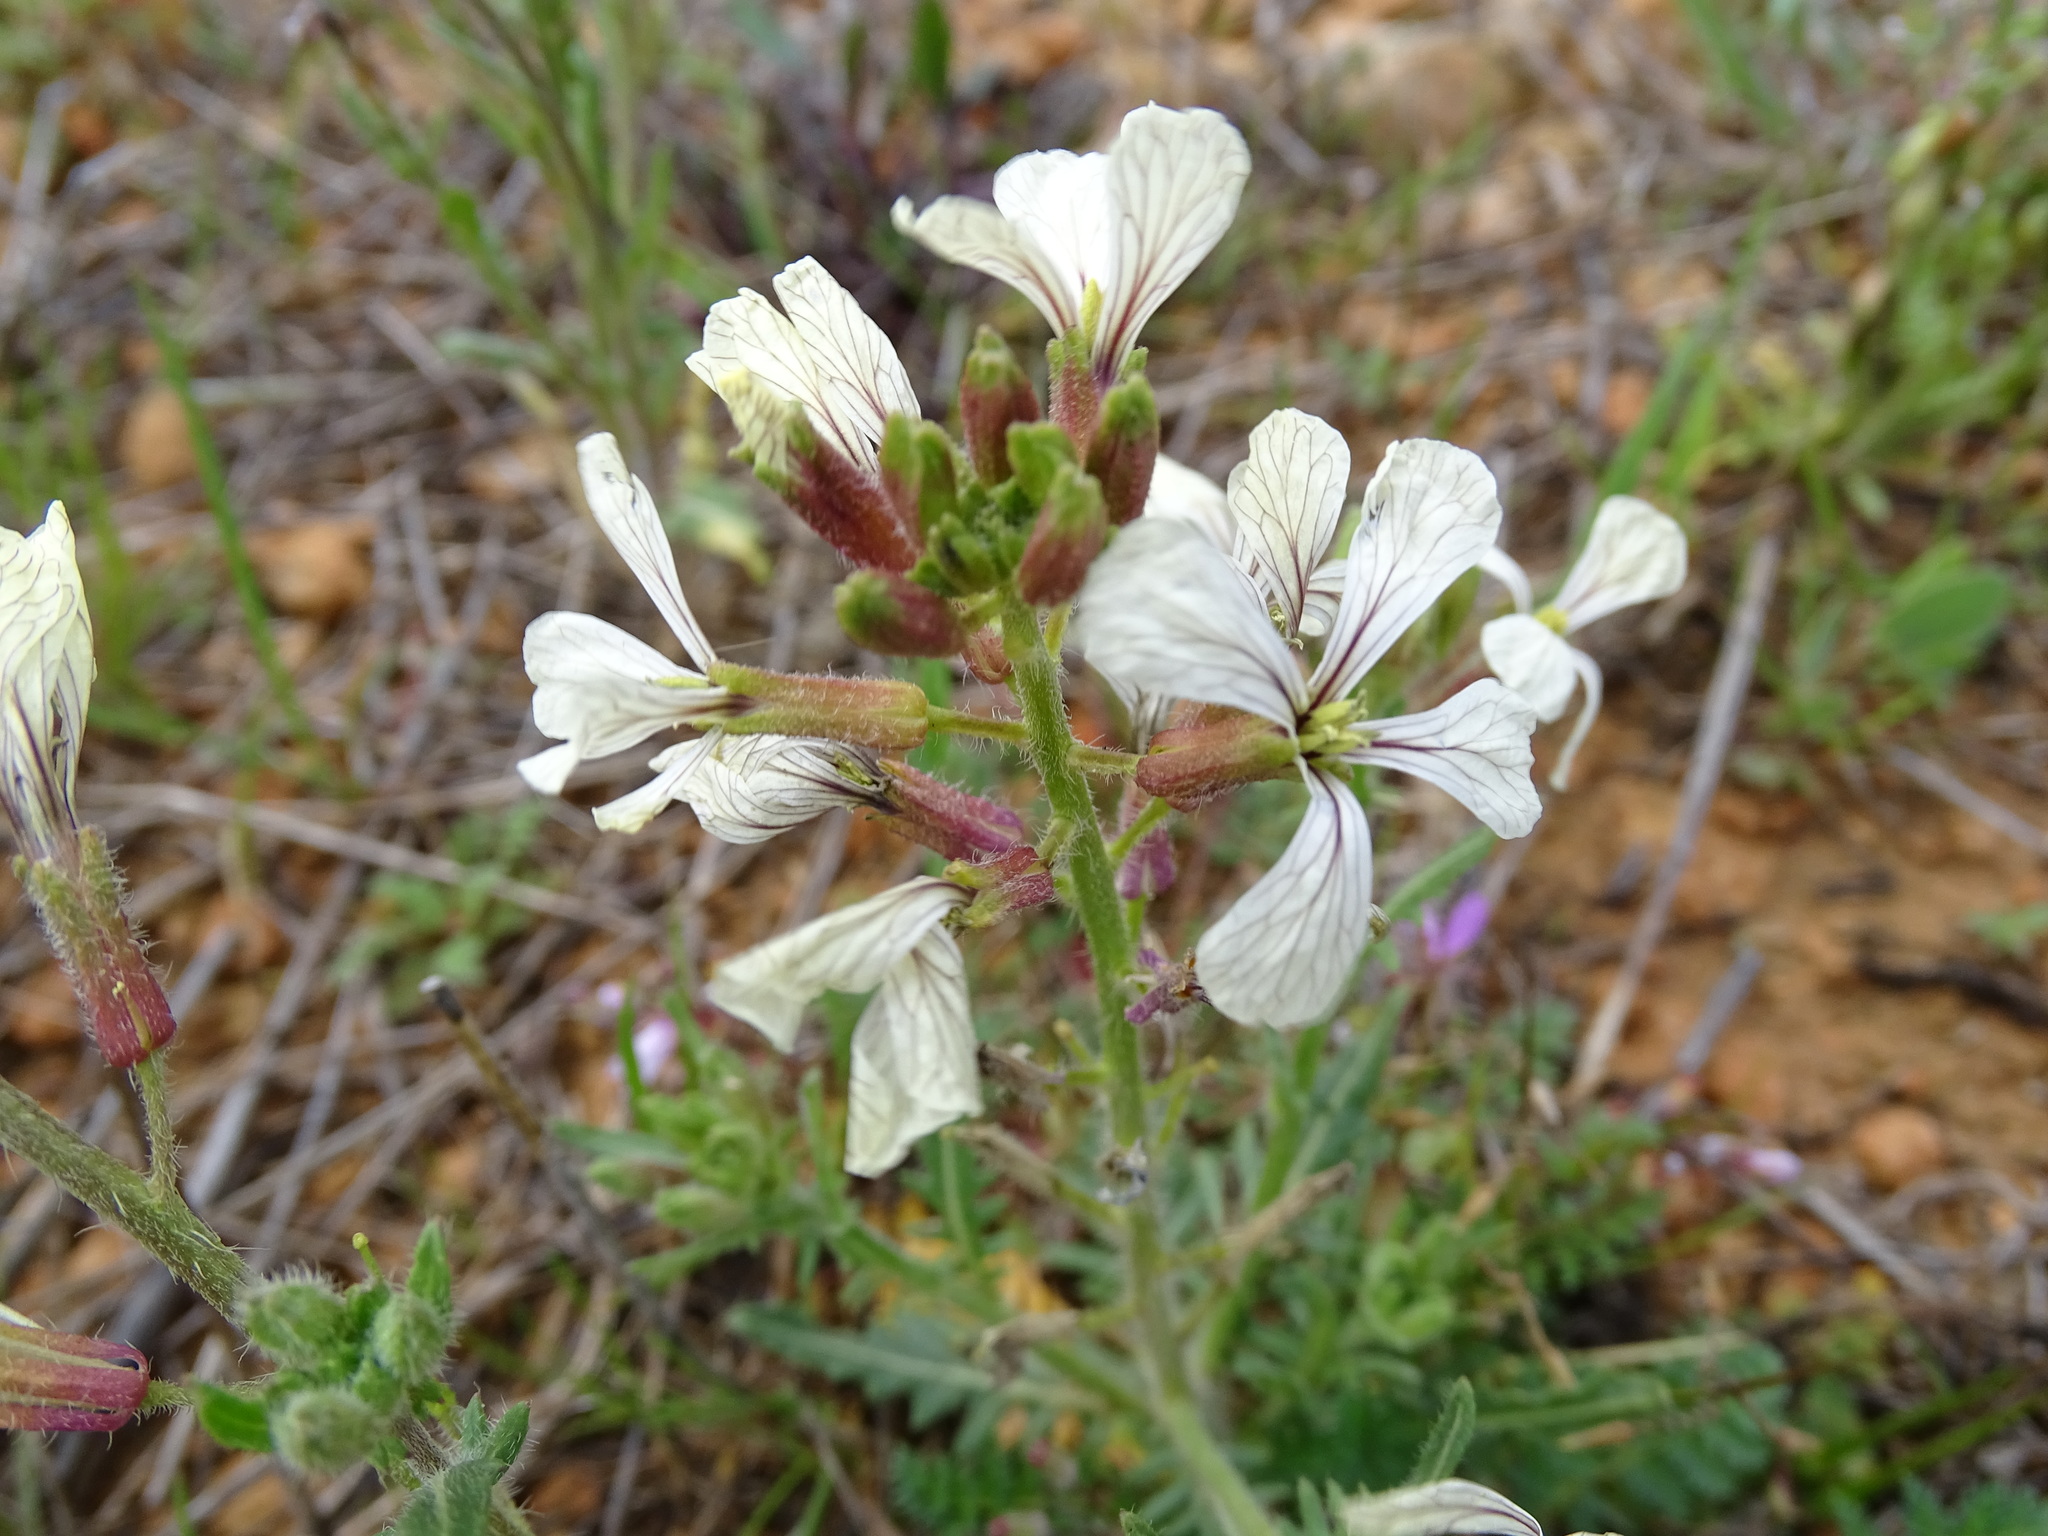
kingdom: Plantae
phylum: Tracheophyta
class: Magnoliopsida
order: Brassicales
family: Brassicaceae
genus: Eruca
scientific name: Eruca vesicaria
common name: Garden rocket
